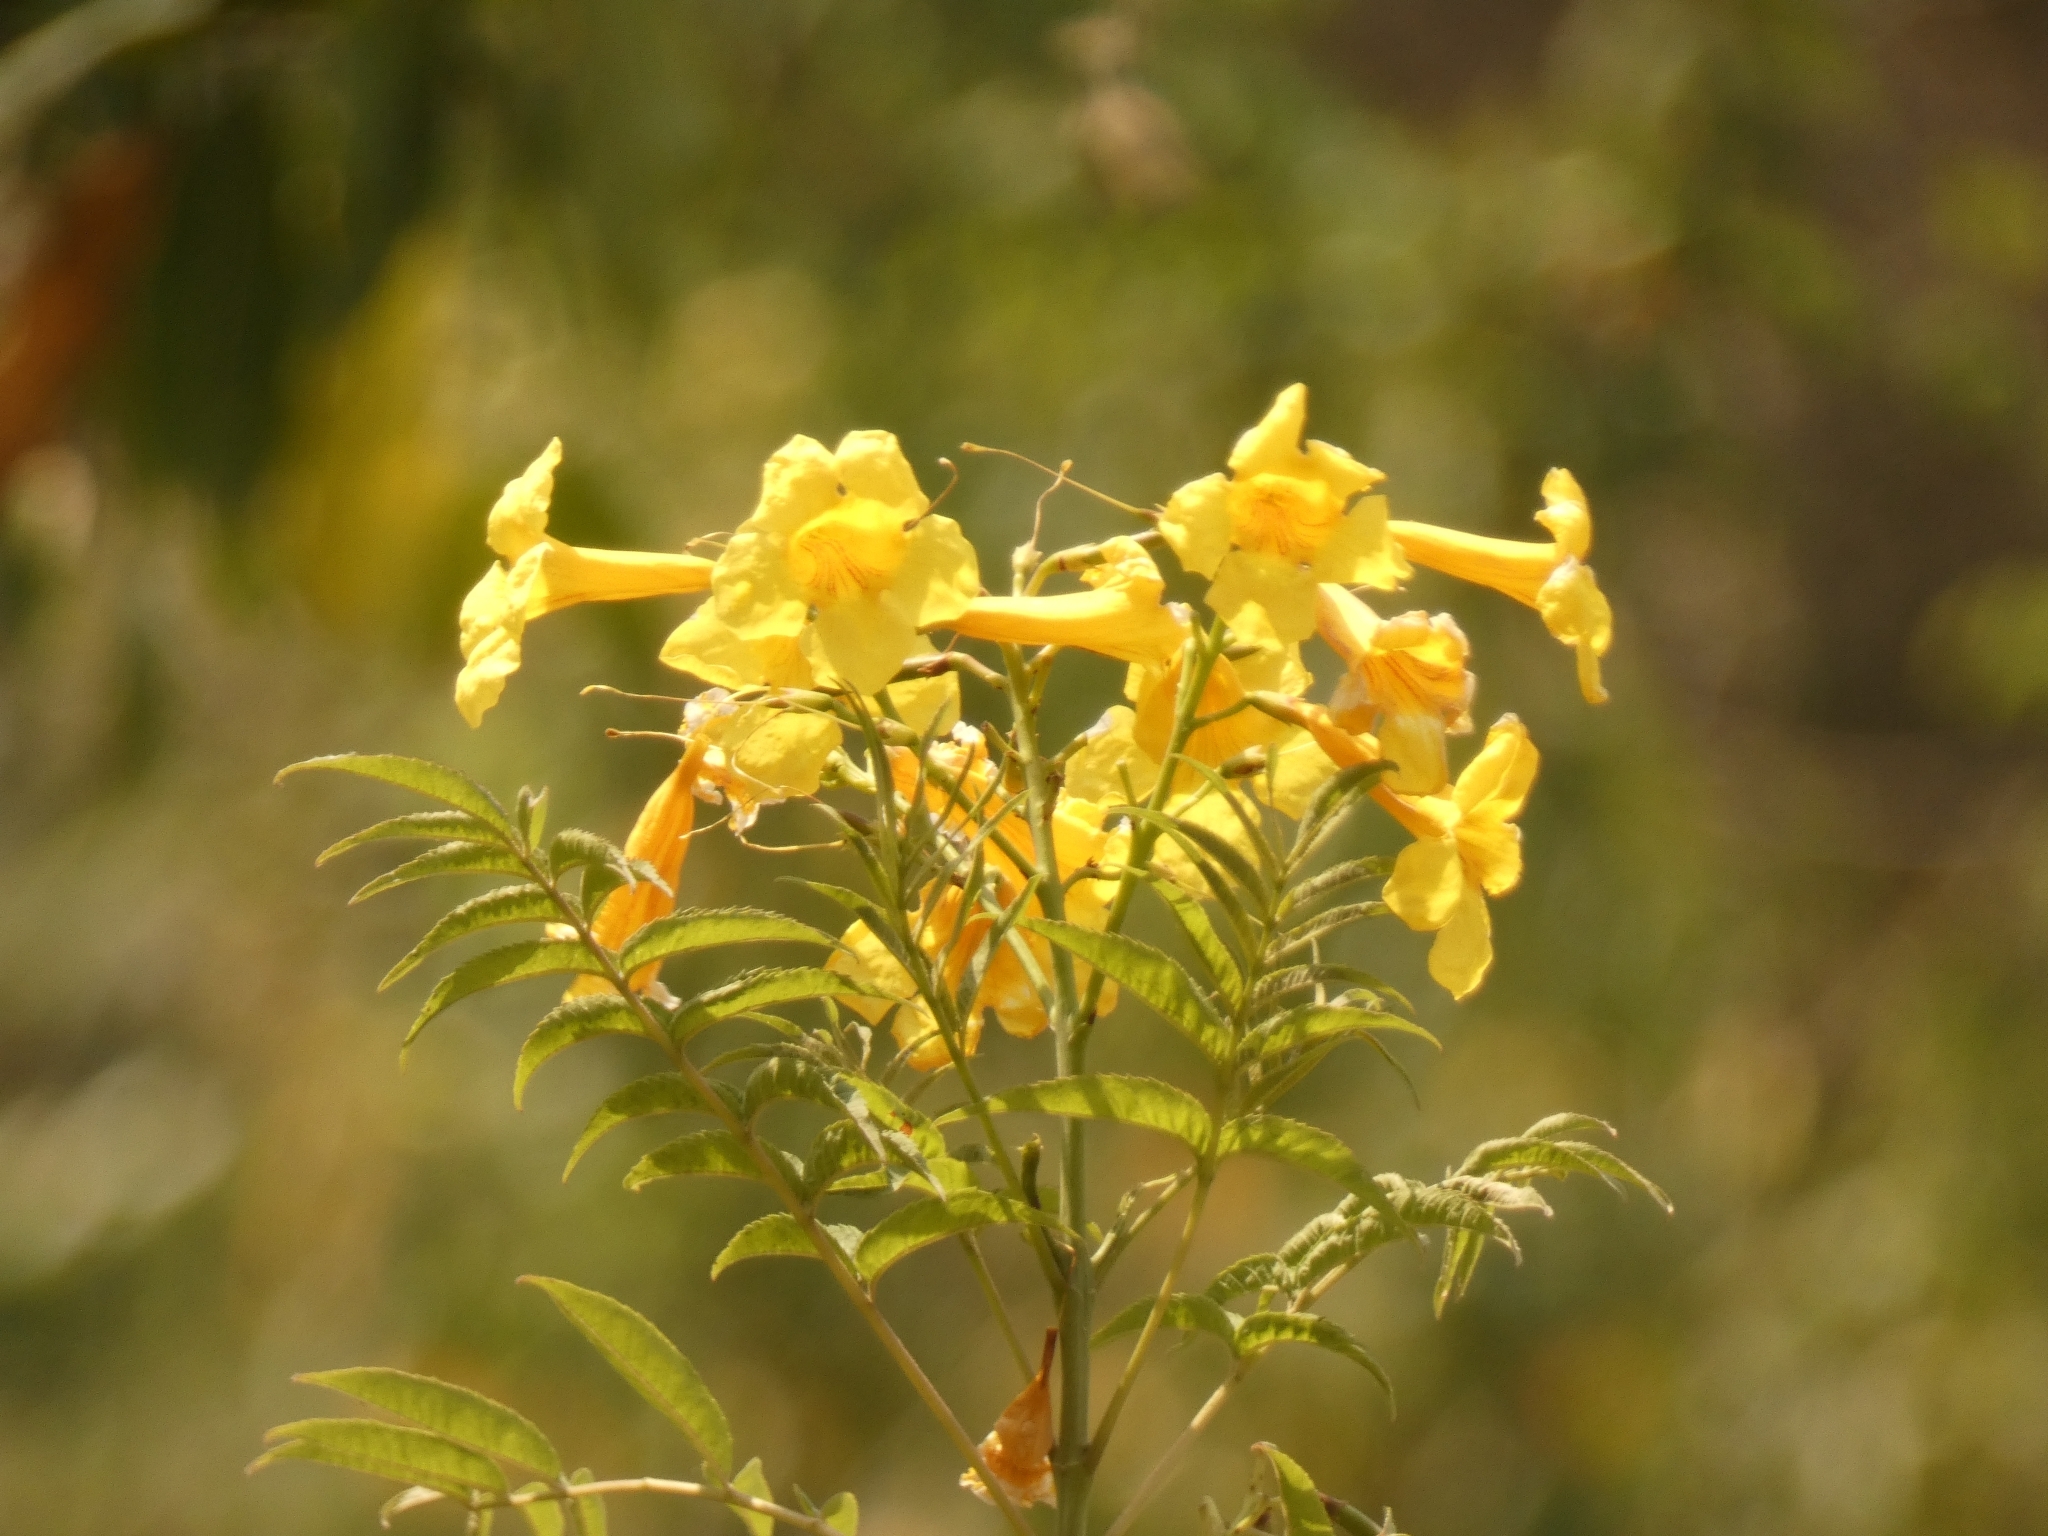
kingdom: Plantae
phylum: Tracheophyta
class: Magnoliopsida
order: Lamiales
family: Bignoniaceae
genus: Tecoma
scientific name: Tecoma stans
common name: Yellow trumpetbush
